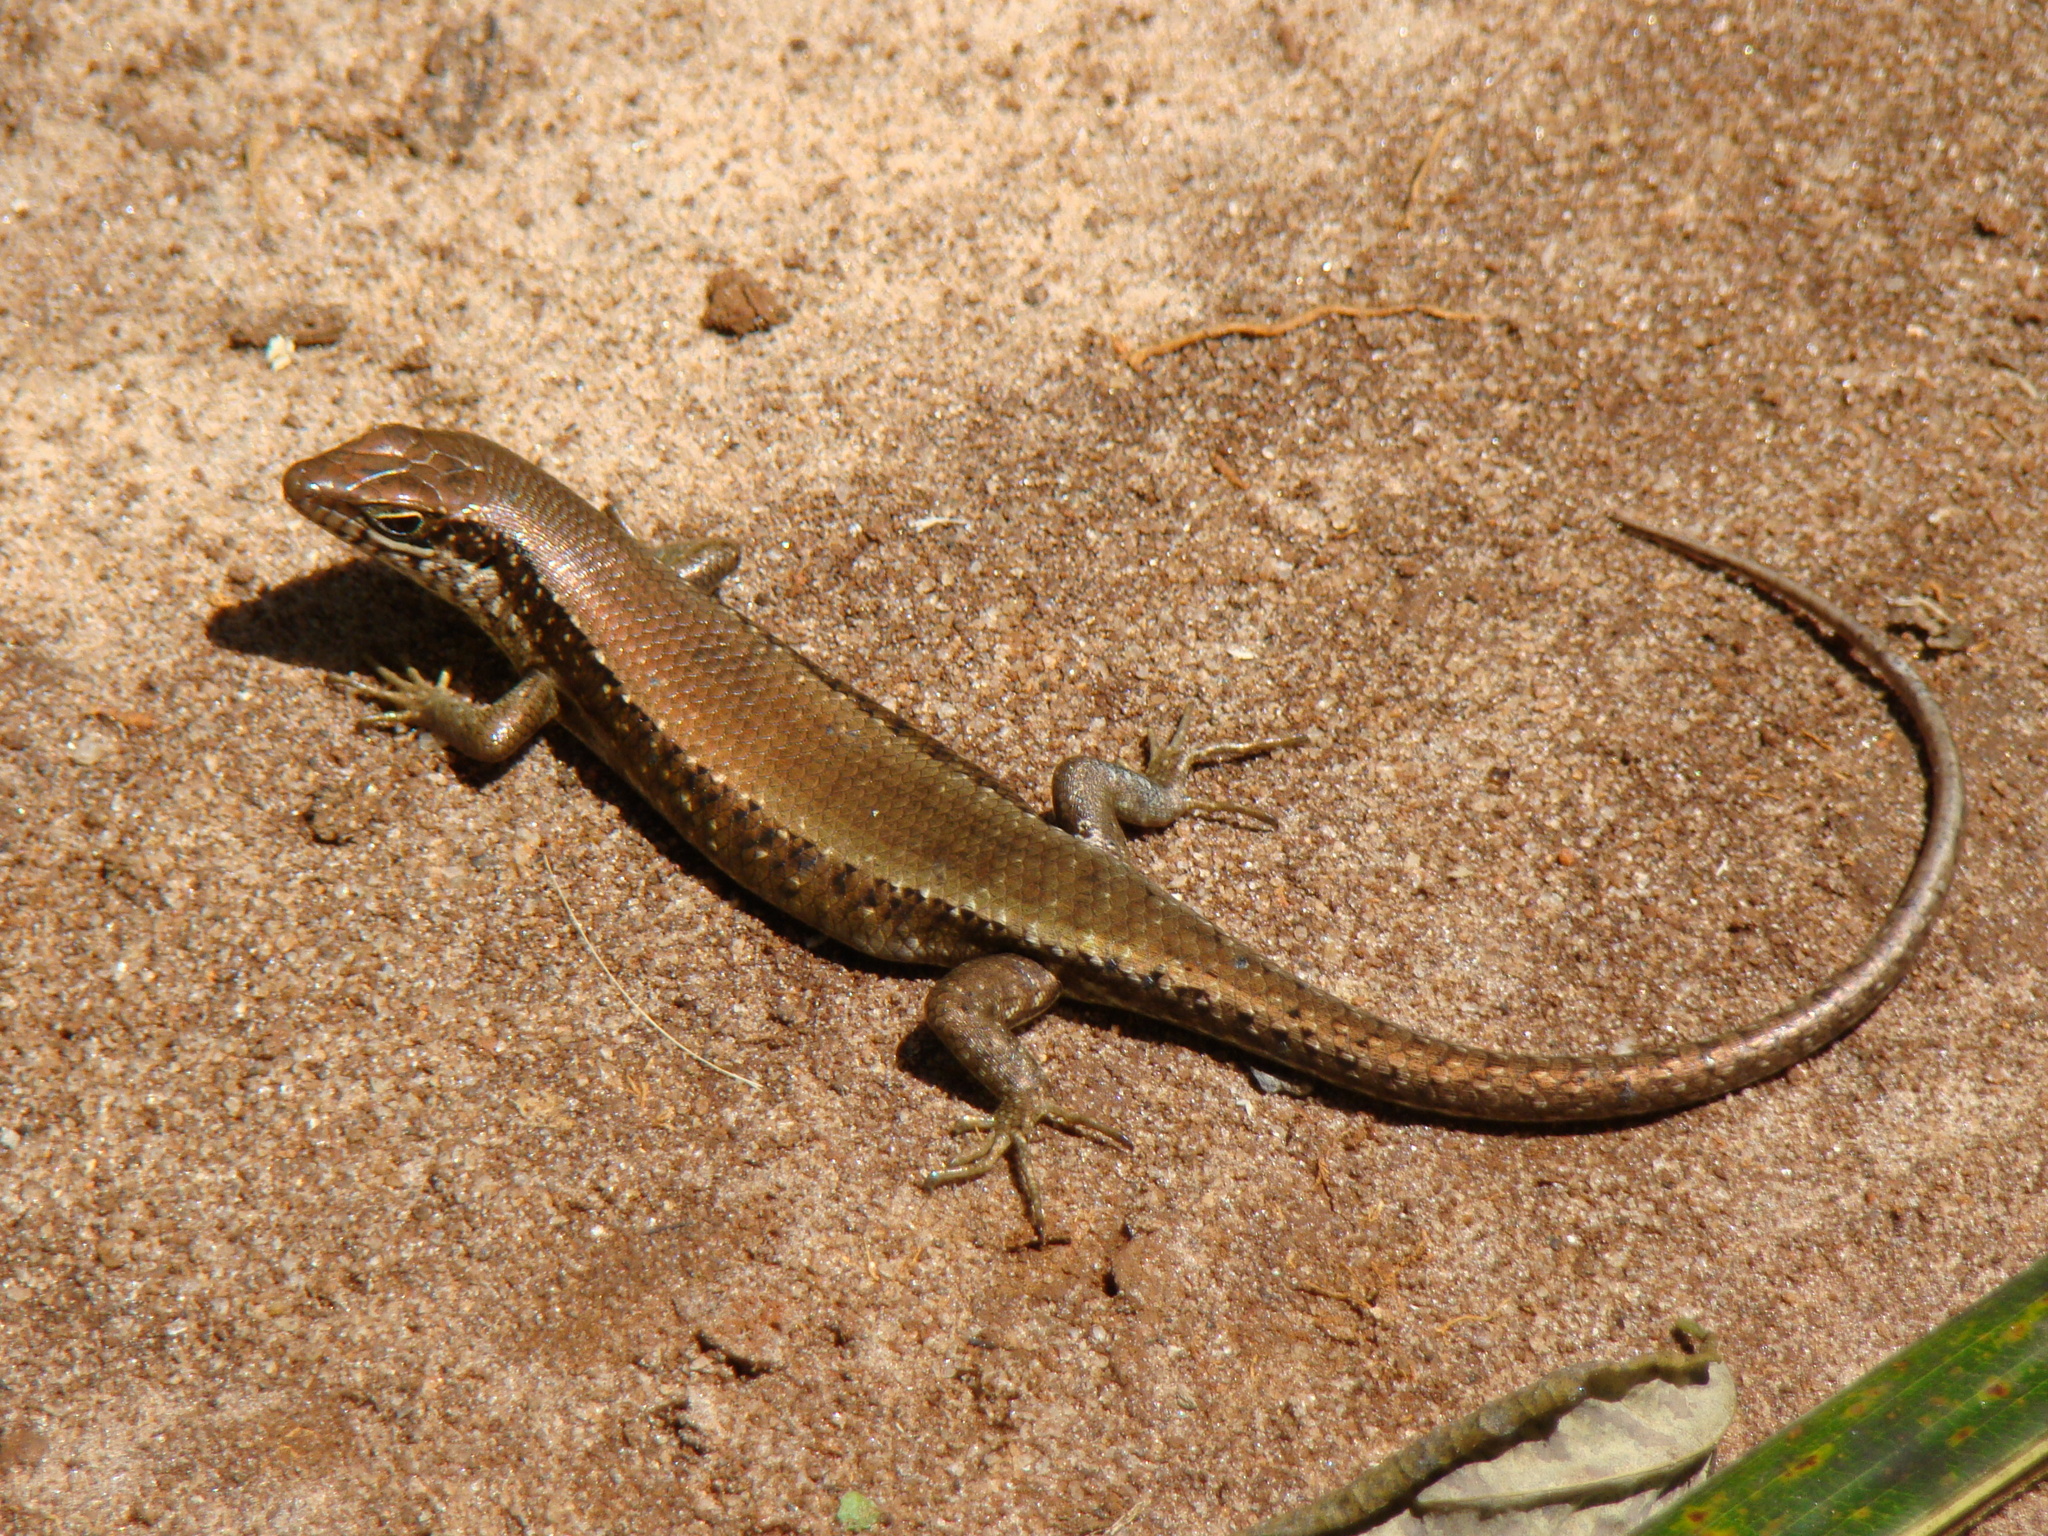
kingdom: Animalia
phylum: Chordata
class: Squamata
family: Scincidae
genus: Trachylepis
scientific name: Trachylepis maculilabris
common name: Speckle-lipped mabuya
